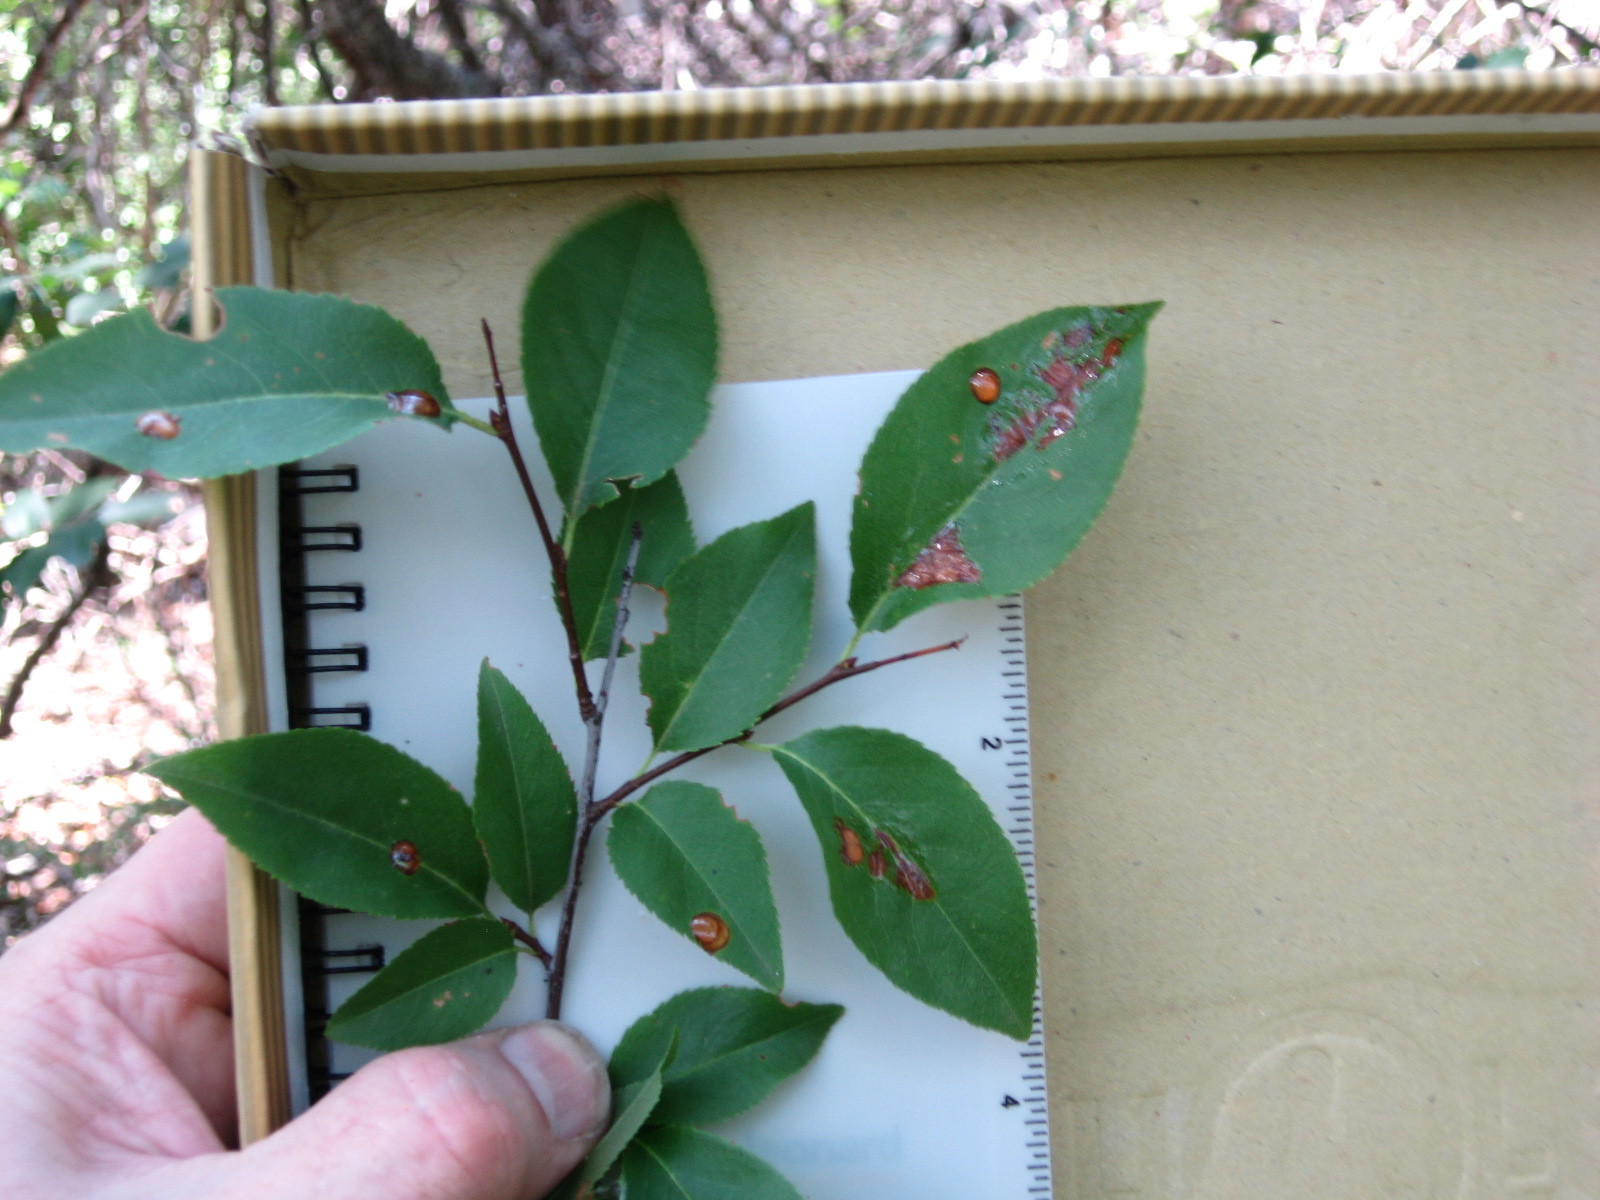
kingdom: Plantae
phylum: Tracheophyta
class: Magnoliopsida
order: Rosales
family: Rosaceae
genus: Prunus
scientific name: Prunus serotina
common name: Black cherry
